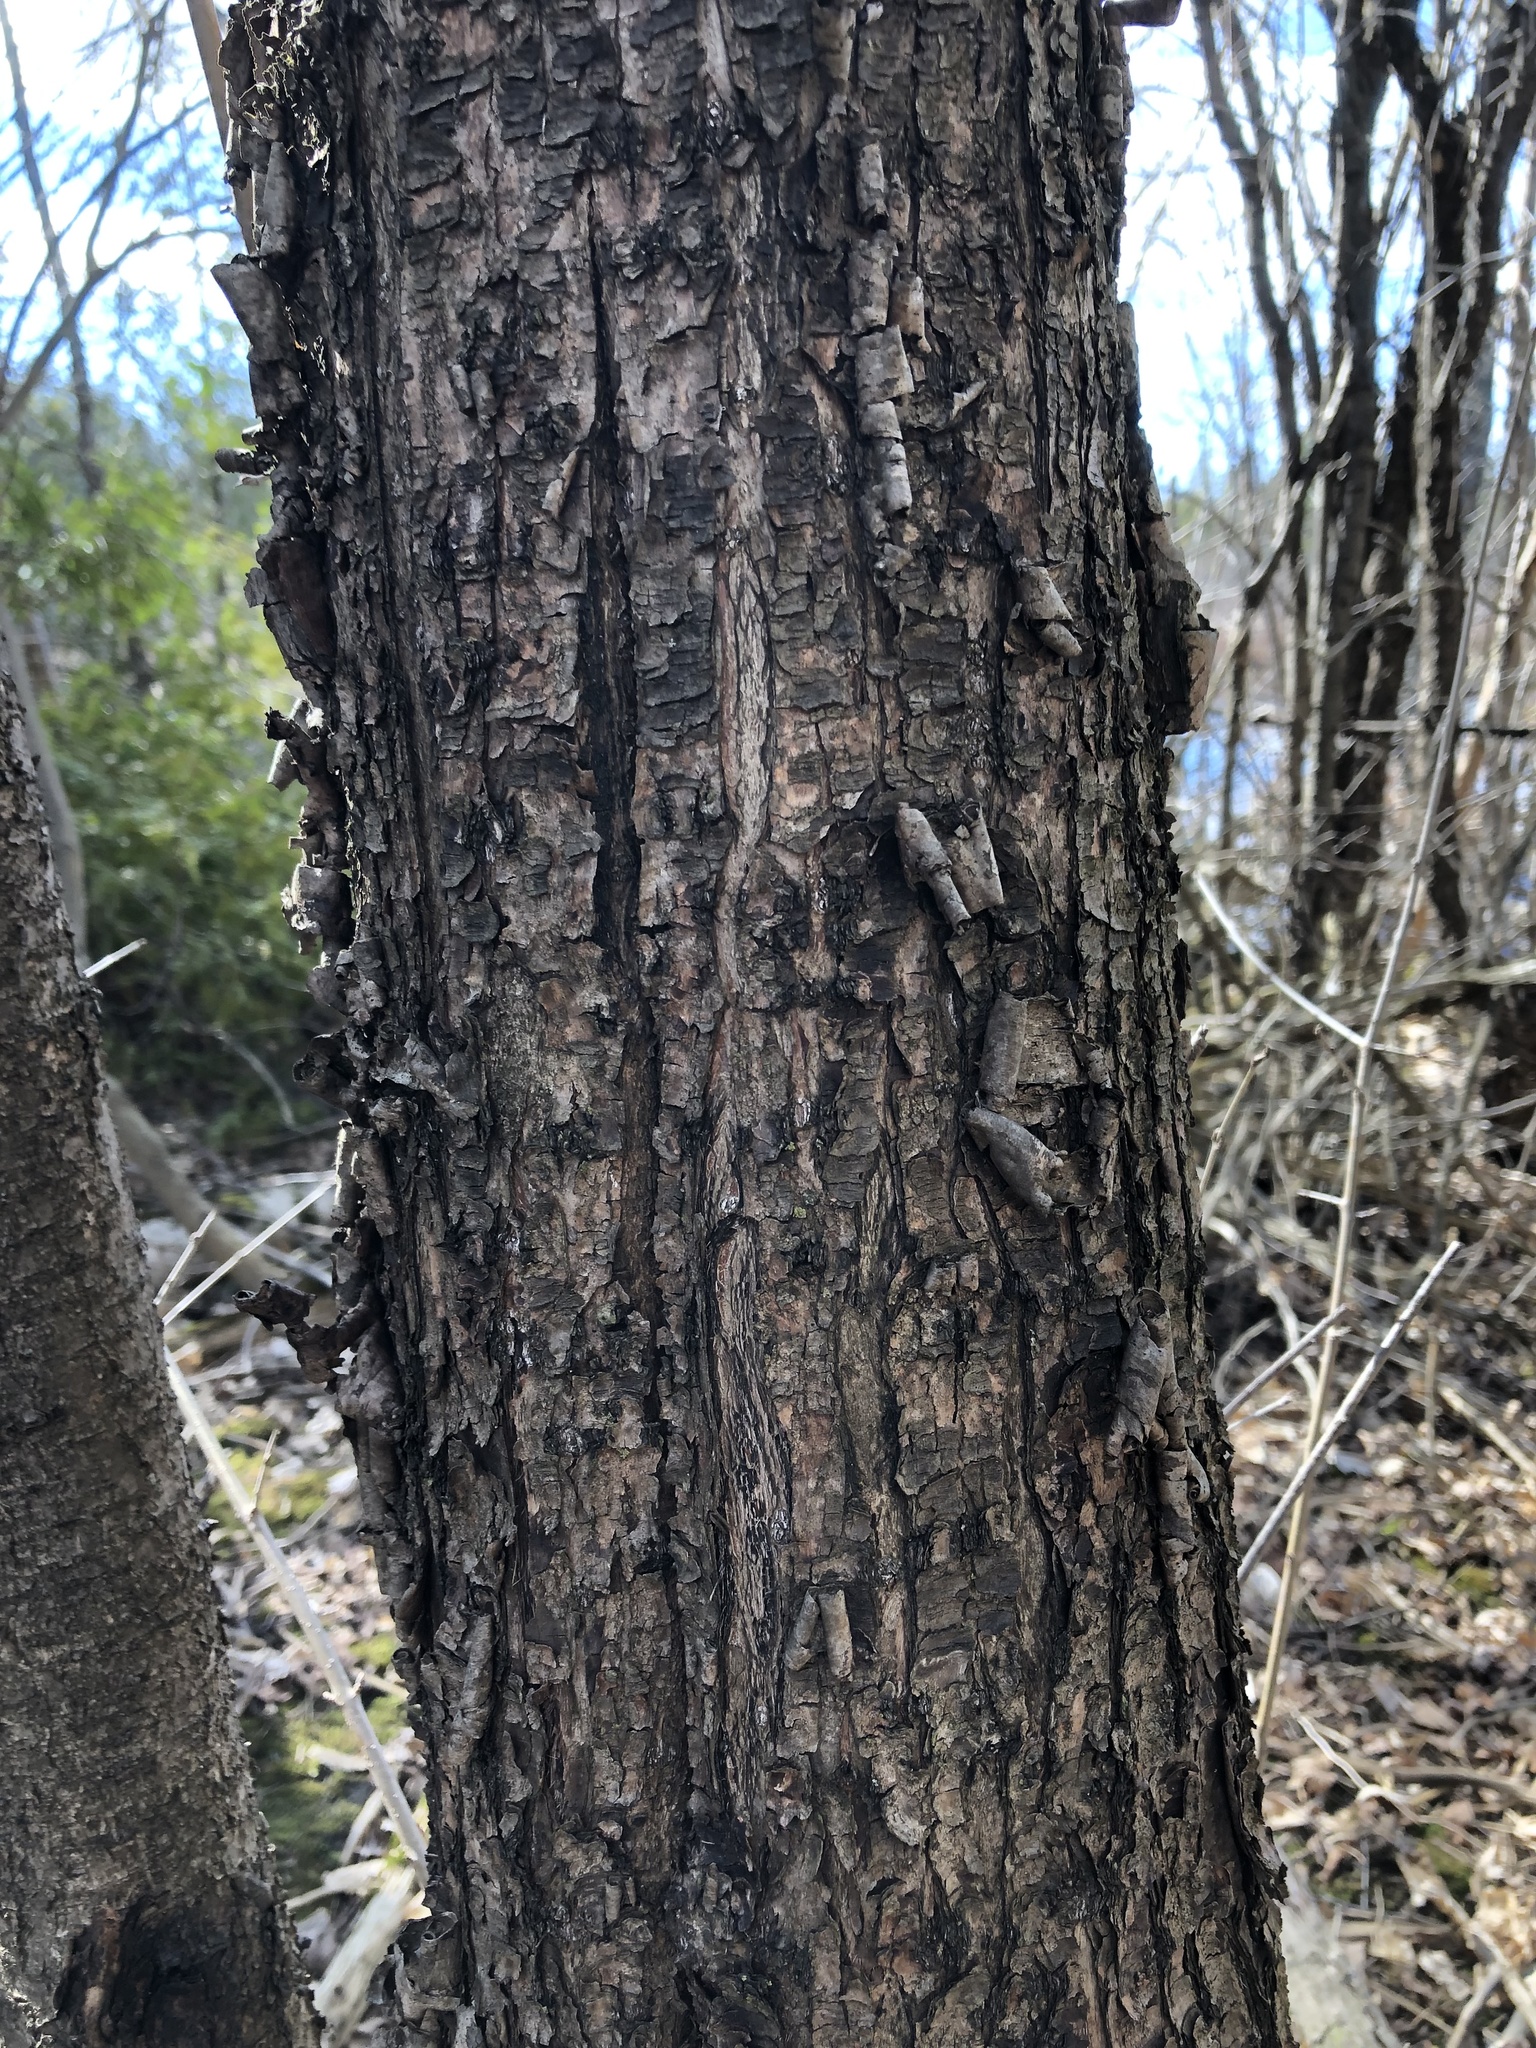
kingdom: Plantae
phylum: Tracheophyta
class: Magnoliopsida
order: Fagales
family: Betulaceae
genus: Betula
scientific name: Betula alleghaniensis
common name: Yellow birch
